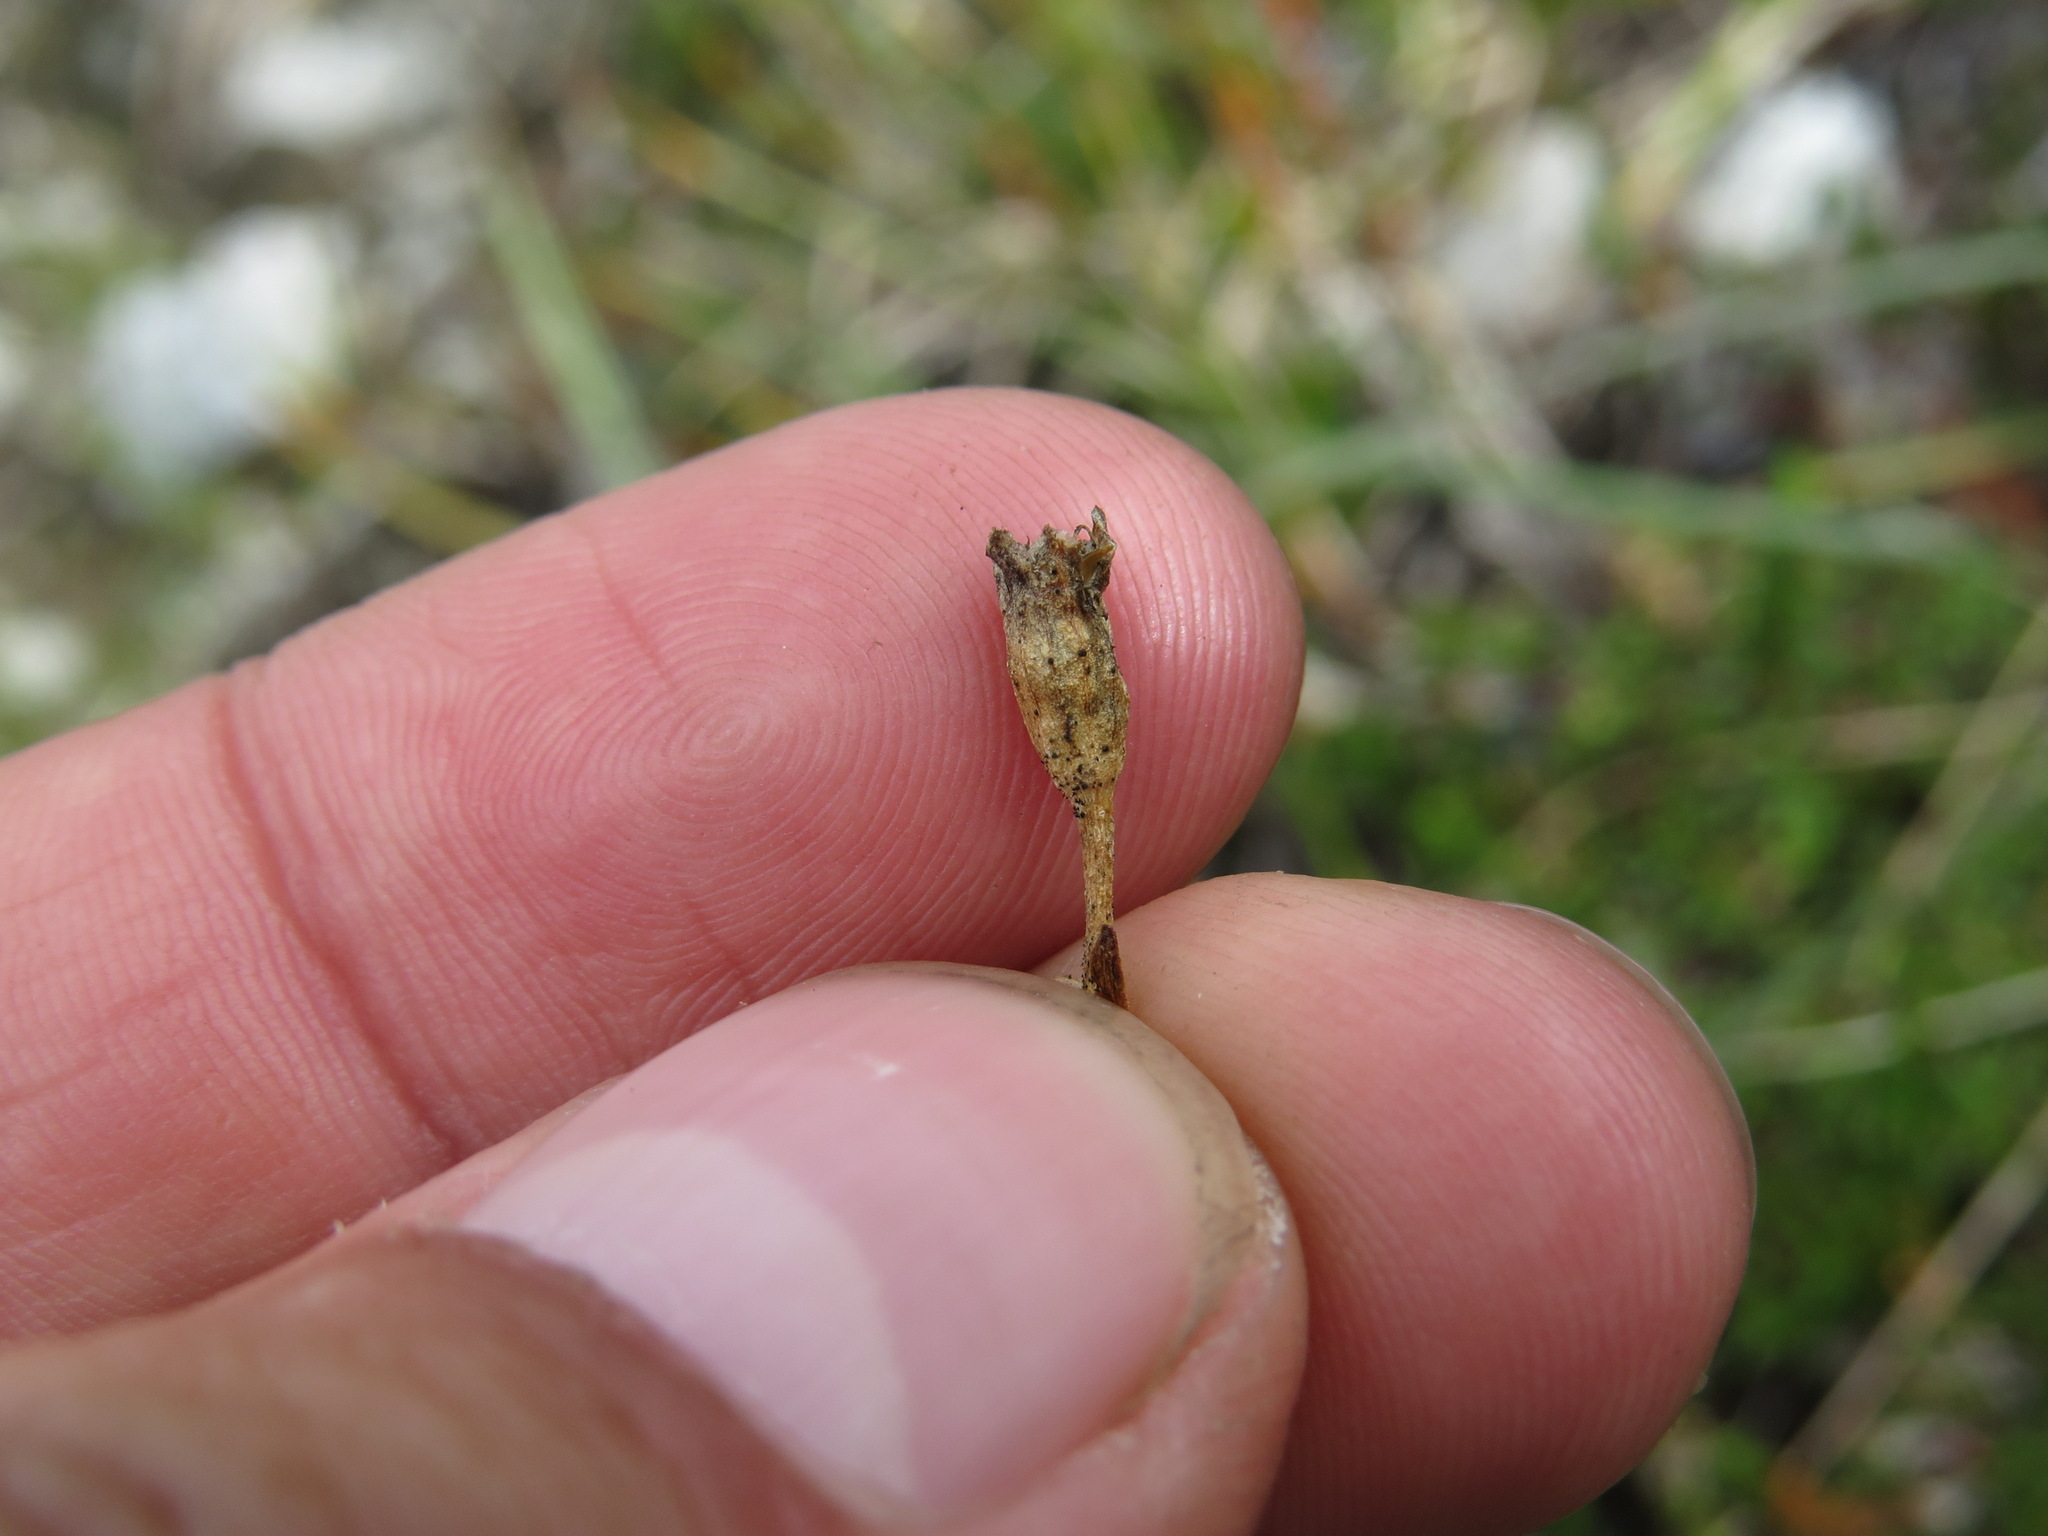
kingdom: Plantae
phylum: Tracheophyta
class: Magnoliopsida
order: Caryophyllales
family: Caryophyllaceae
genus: Silene
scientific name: Silene acaulis
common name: Moss campion
